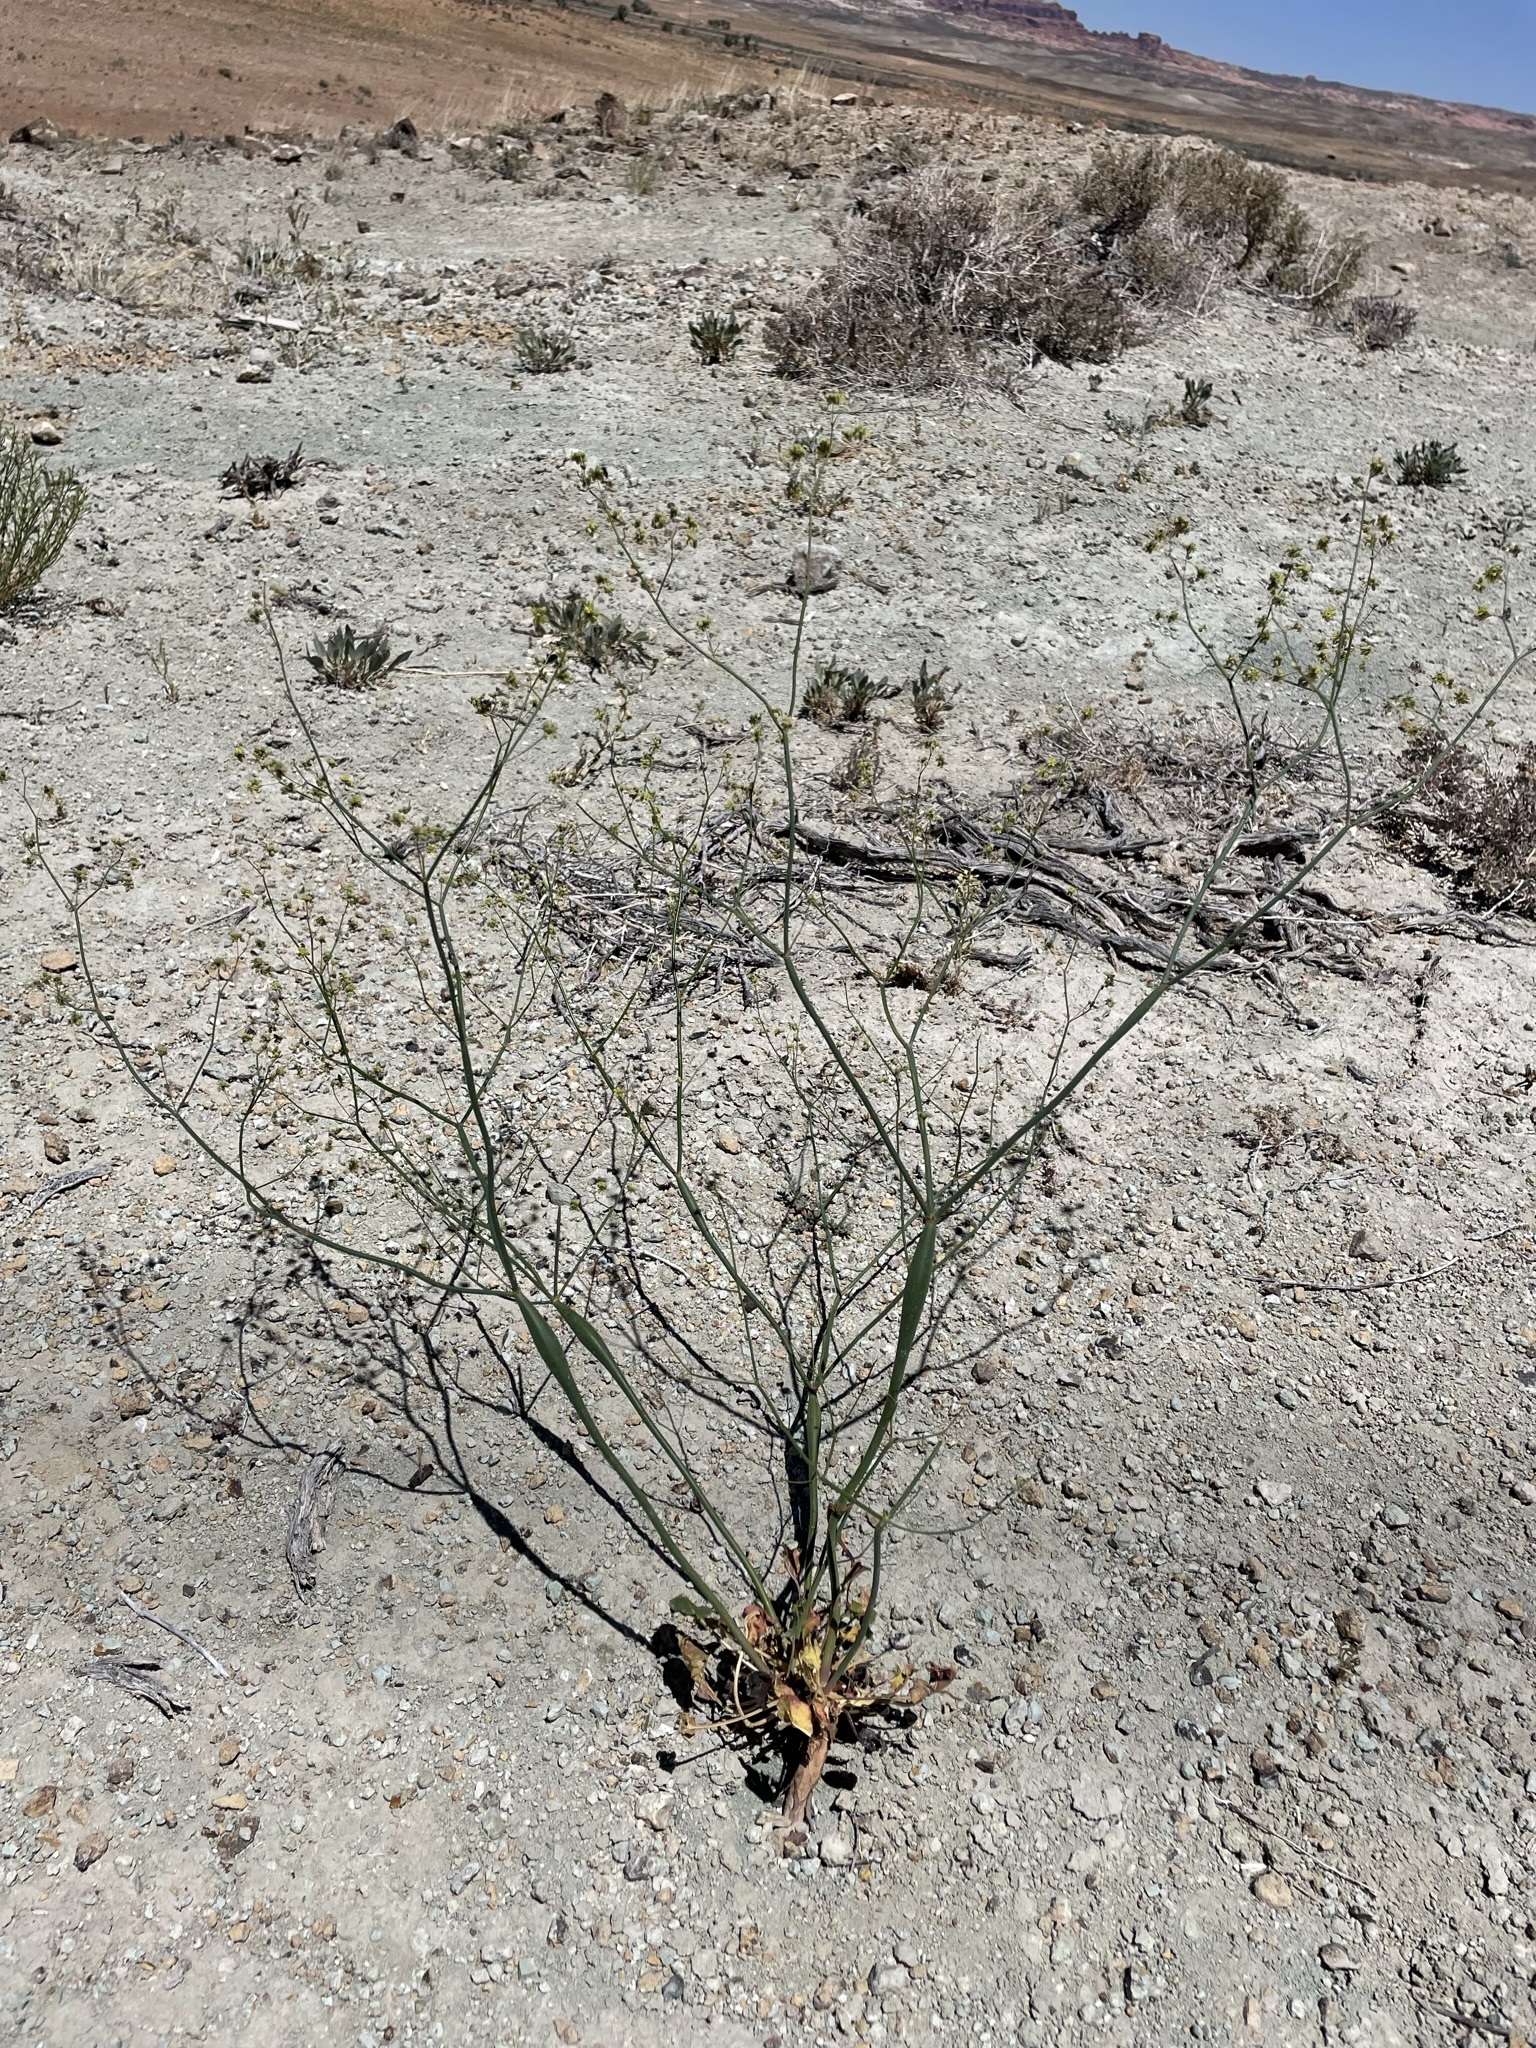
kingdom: Plantae
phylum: Tracheophyta
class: Magnoliopsida
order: Caryophyllales
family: Polygonaceae
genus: Eriogonum
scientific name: Eriogonum inflatum
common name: Desert trumpet
